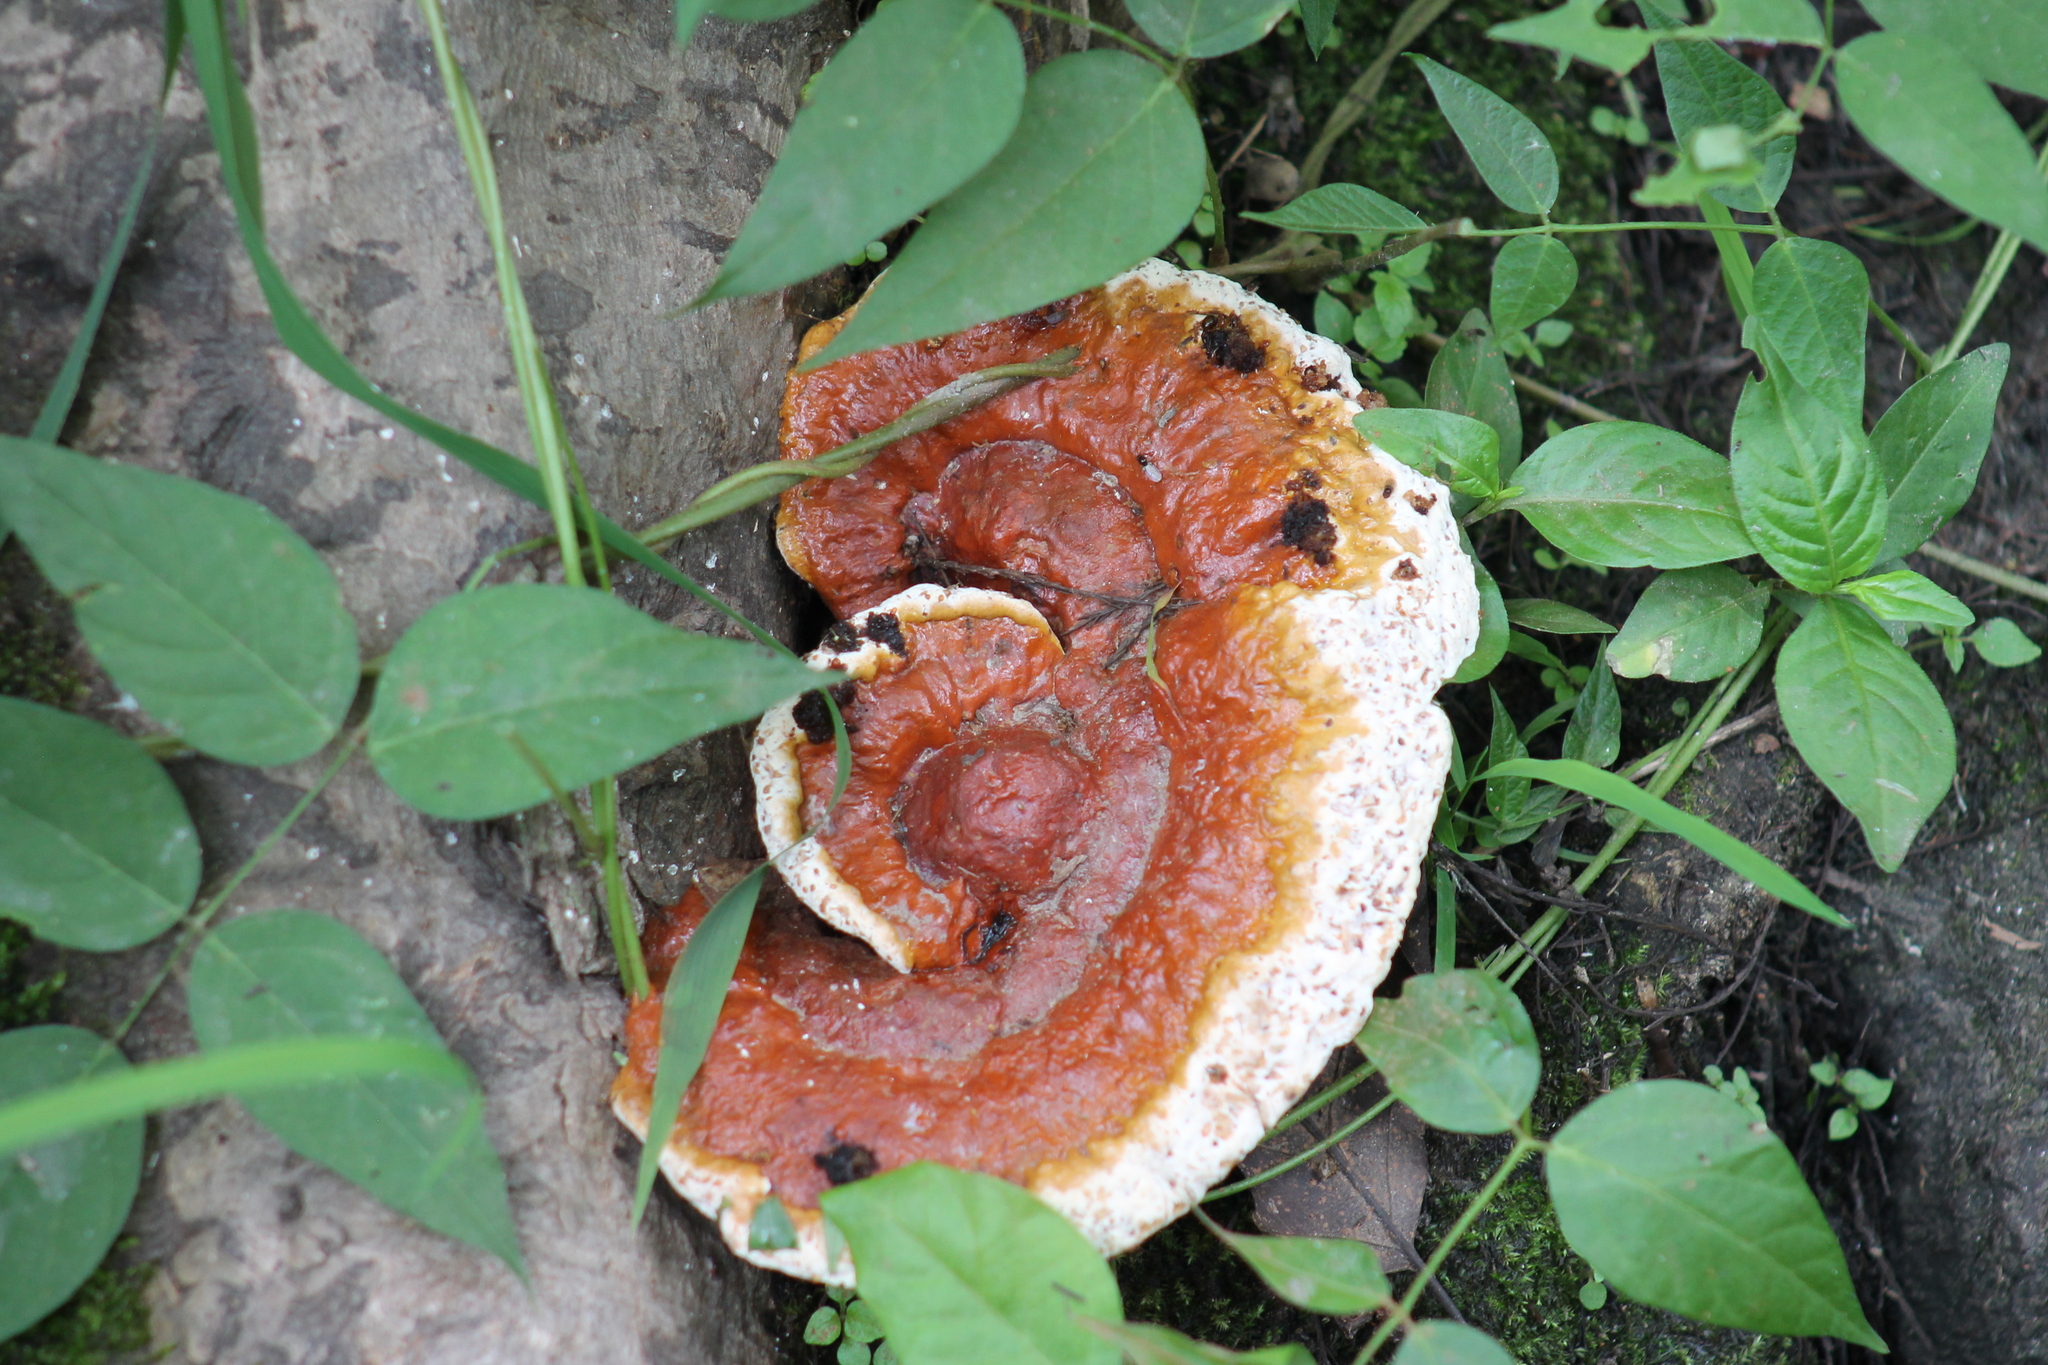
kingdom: Fungi
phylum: Basidiomycota
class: Agaricomycetes
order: Polyporales
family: Polyporaceae
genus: Ganoderma
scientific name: Ganoderma tsugae
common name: Hemlock varnish shelf
